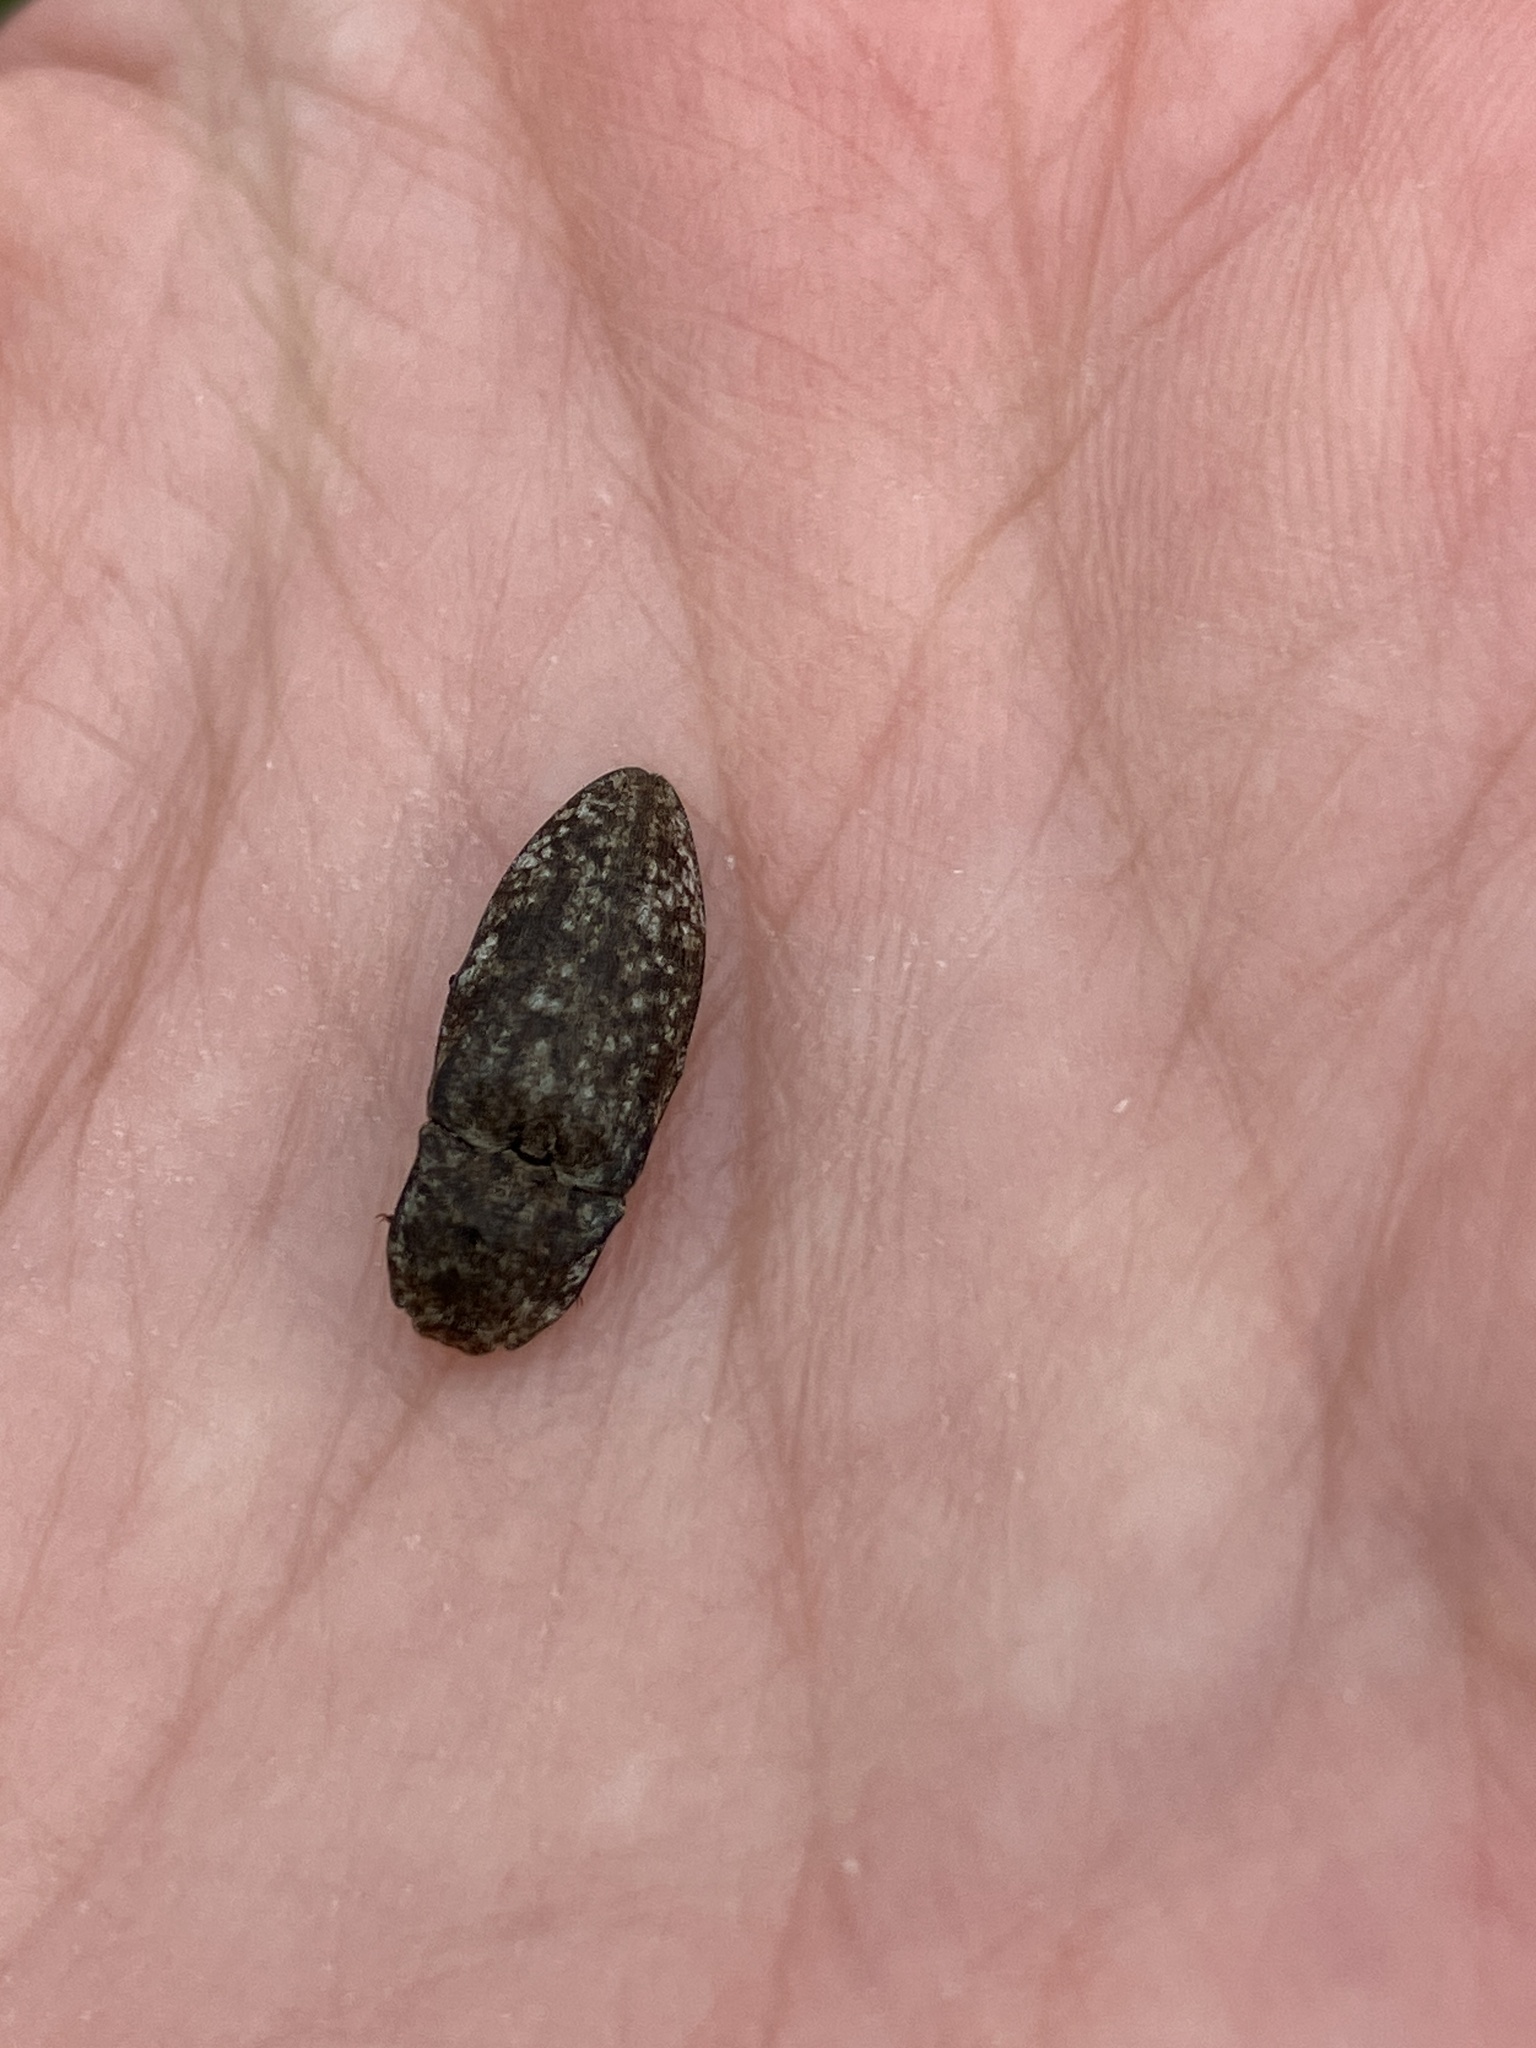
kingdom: Animalia
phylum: Arthropoda
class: Insecta
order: Coleoptera
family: Elateridae
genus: Agrypnus
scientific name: Agrypnus murinus
